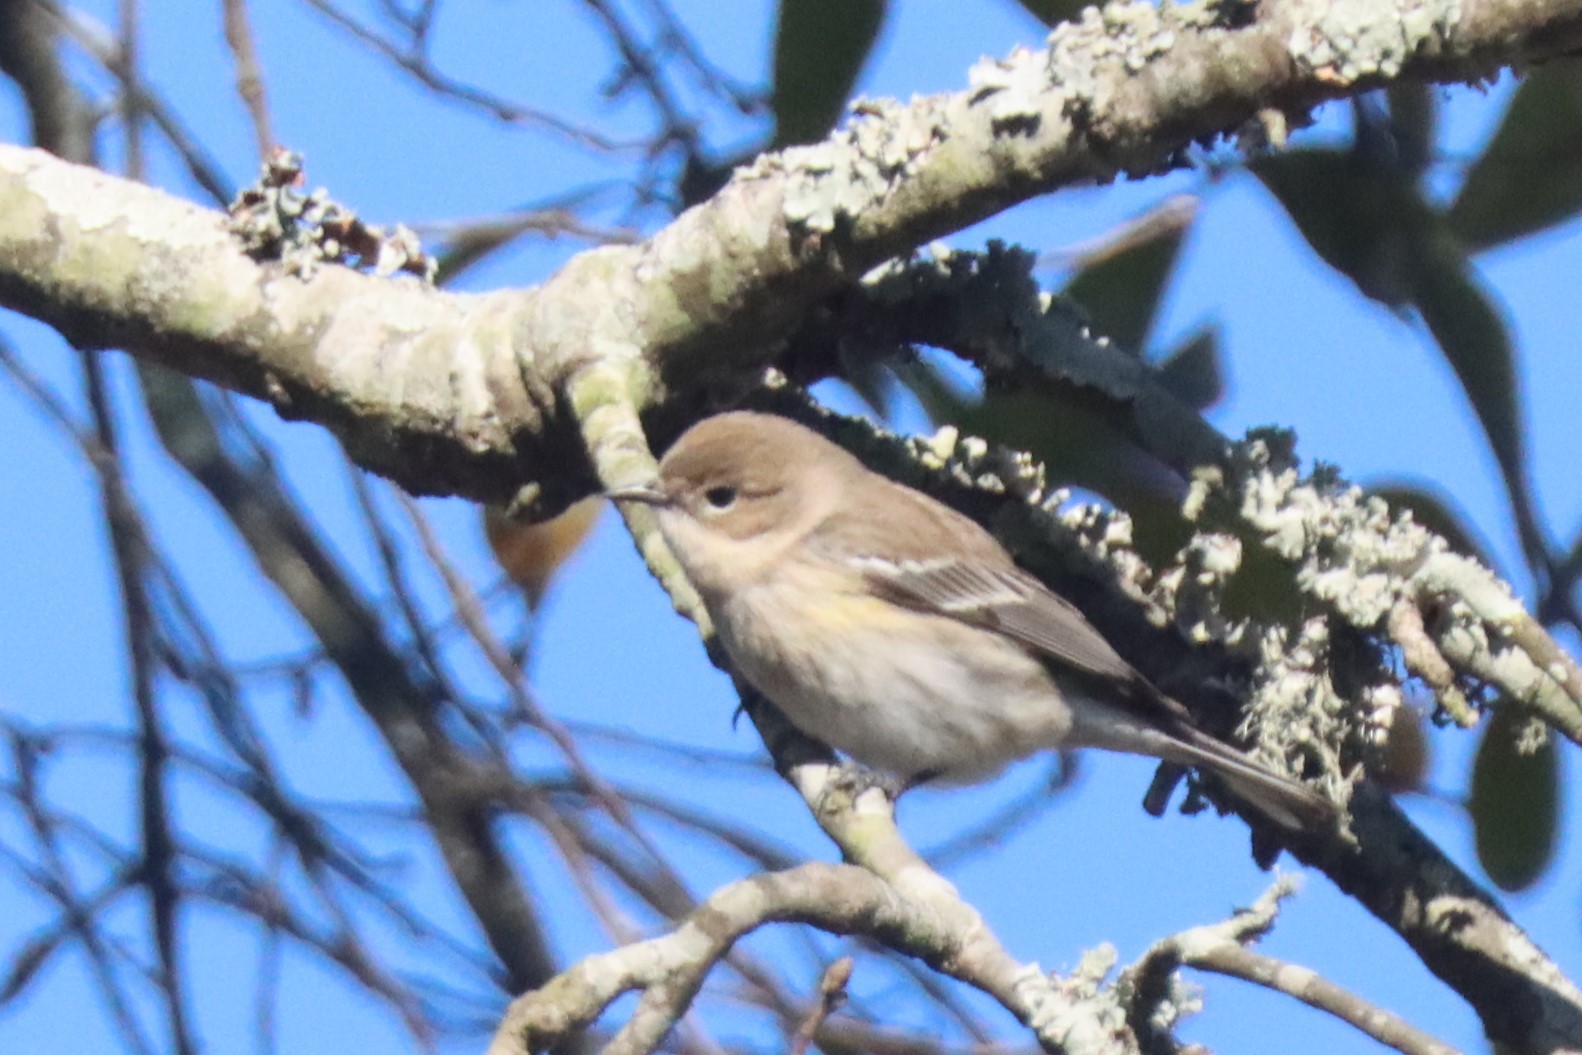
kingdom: Animalia
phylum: Chordata
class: Aves
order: Passeriformes
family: Parulidae
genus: Setophaga
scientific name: Setophaga coronata
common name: Myrtle warbler
